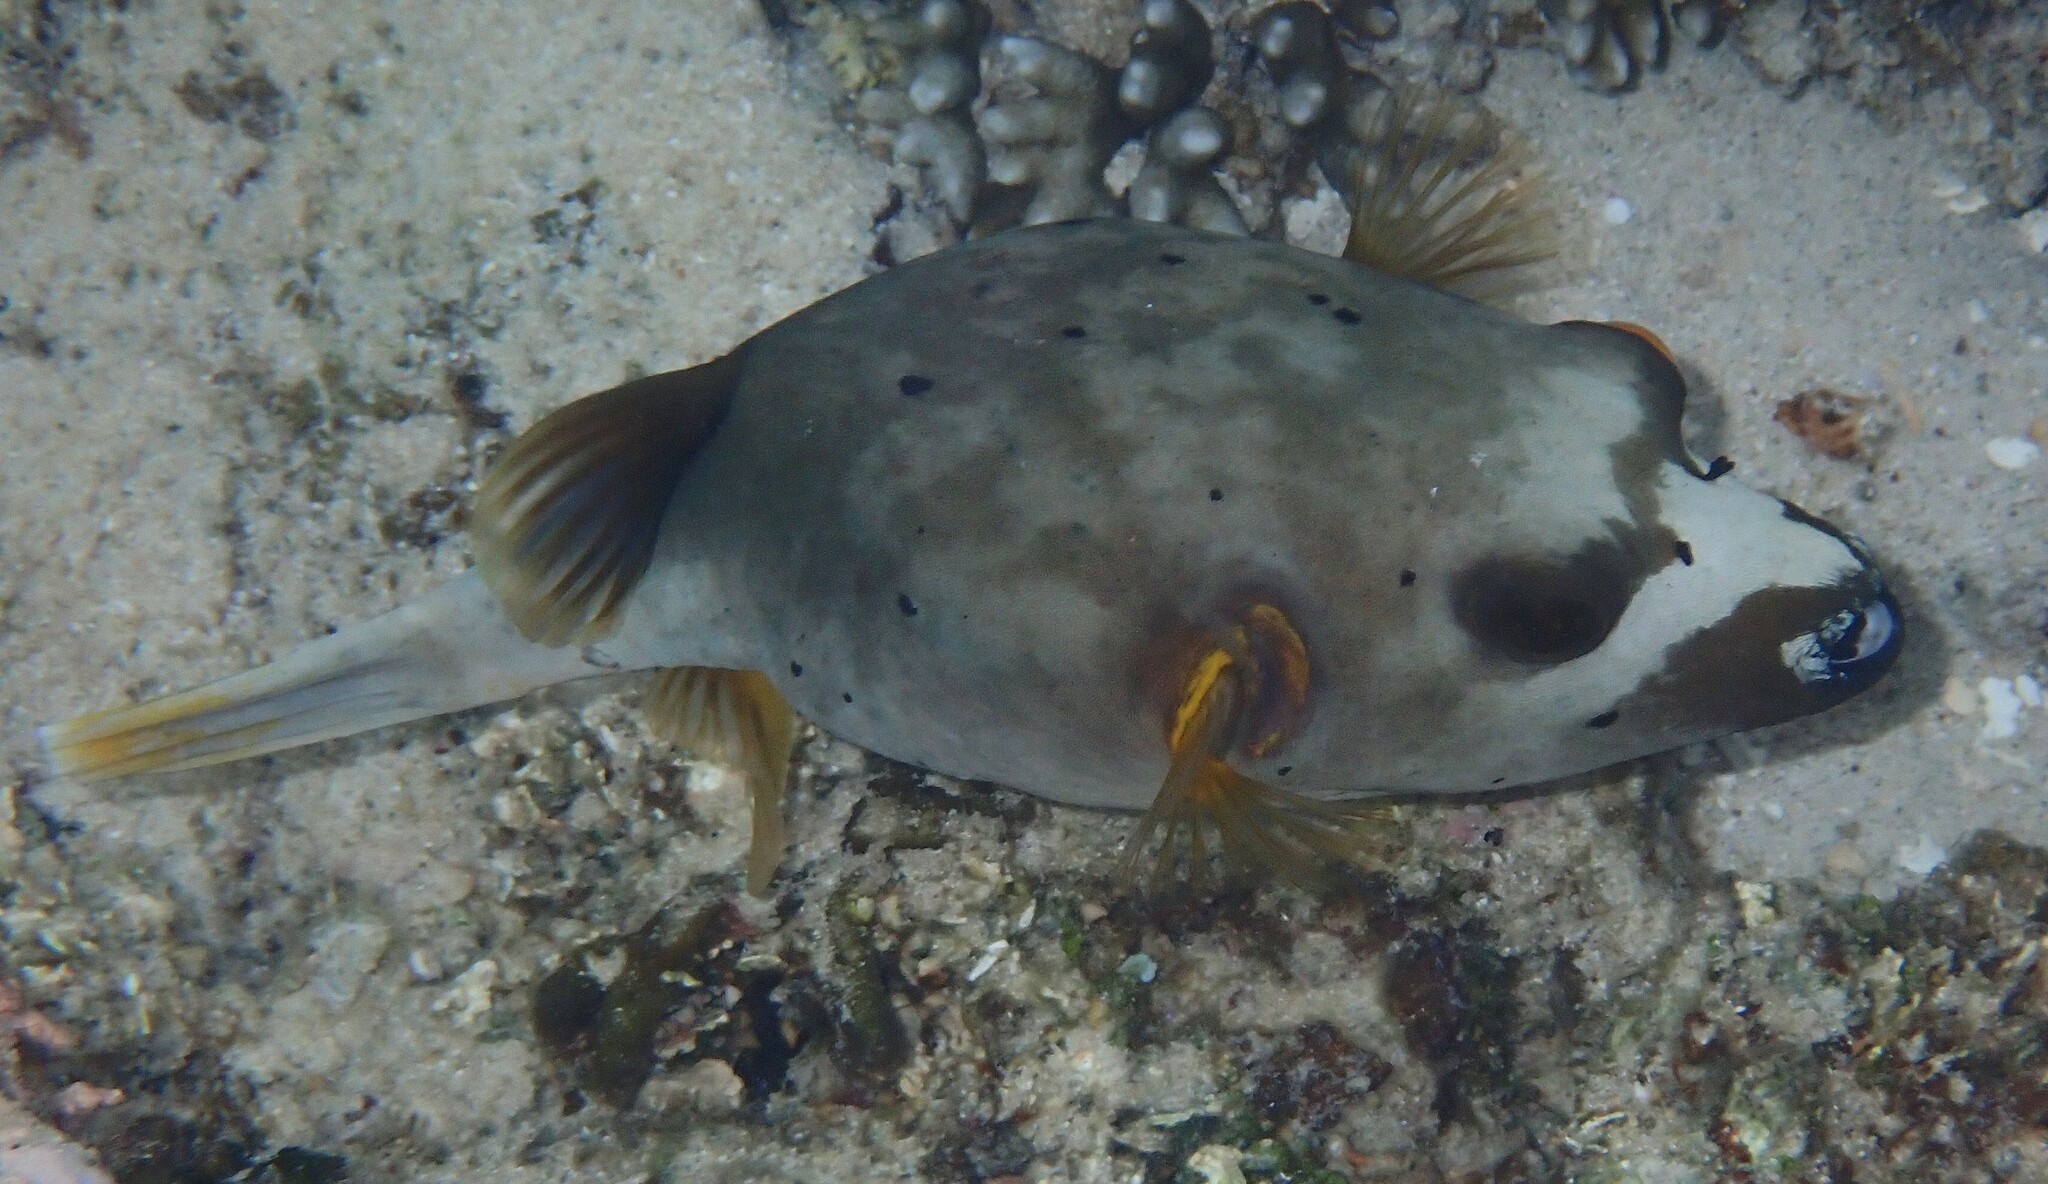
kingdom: Animalia
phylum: Chordata
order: Tetraodontiformes
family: Tetraodontidae
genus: Arothron
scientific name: Arothron nigropunctatus
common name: Black spotted blow fish
